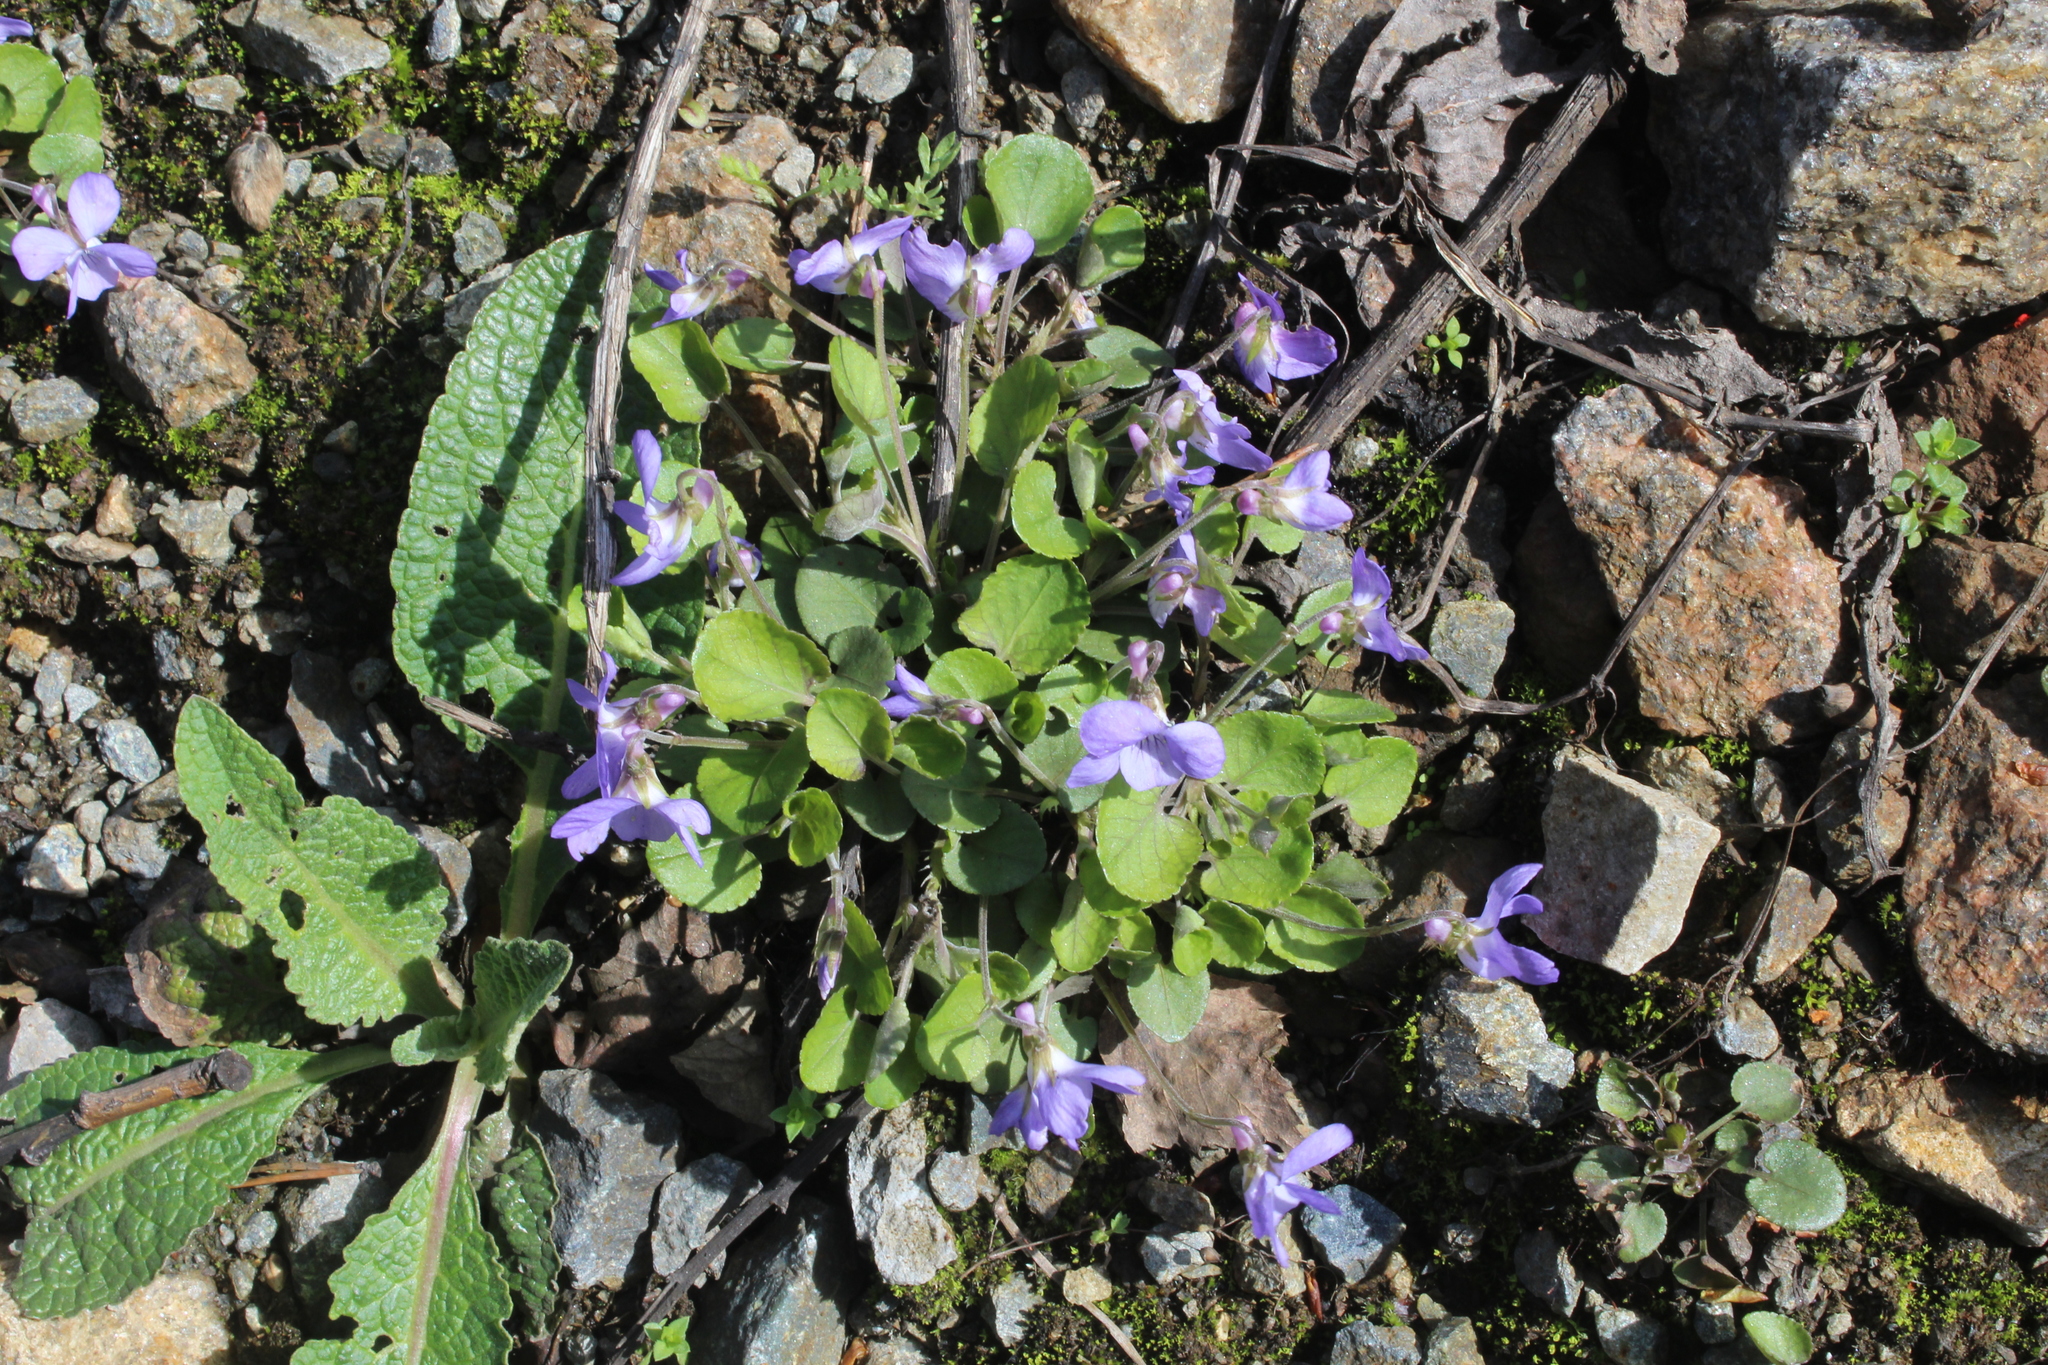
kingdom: Plantae
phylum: Tracheophyta
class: Magnoliopsida
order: Malpighiales
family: Violaceae
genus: Viola
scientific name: Viola rupestris
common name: Teesdale violet
